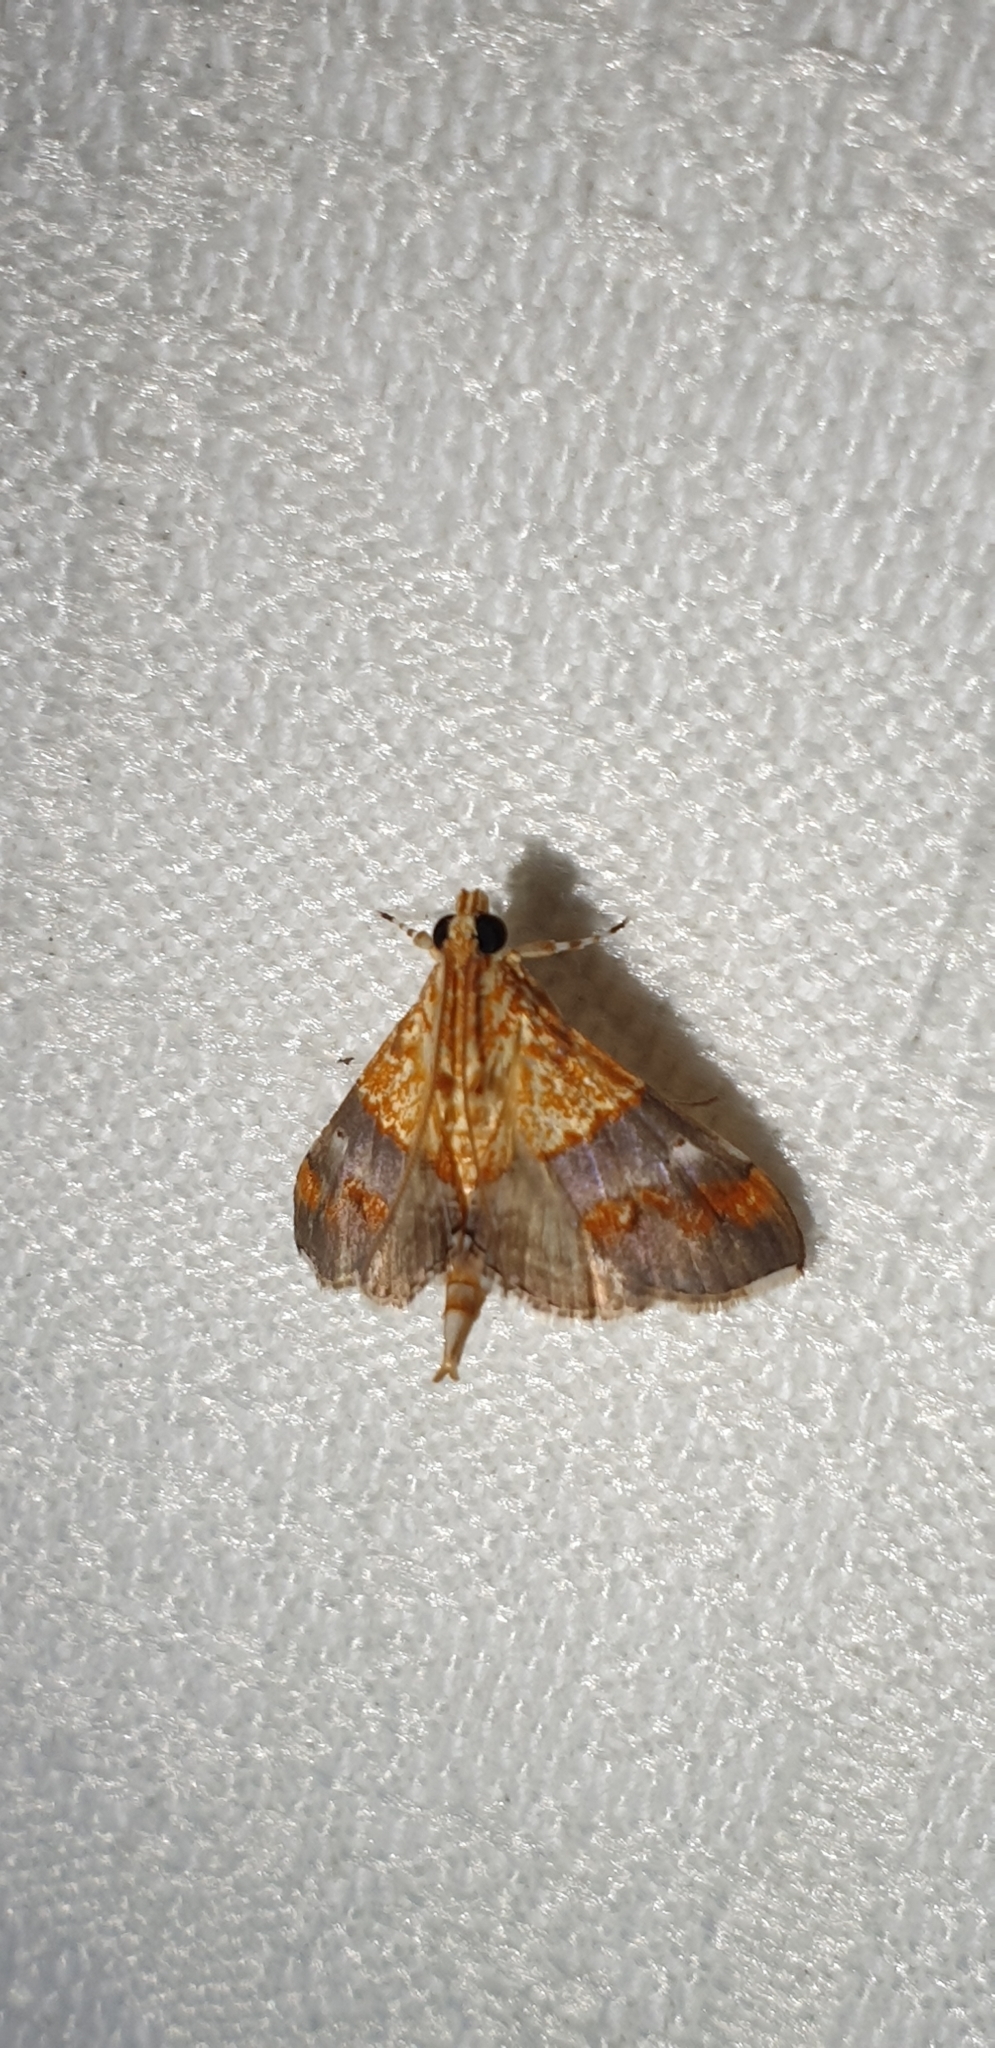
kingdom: Animalia
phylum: Arthropoda
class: Insecta
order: Lepidoptera
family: Crambidae
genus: Agrotera
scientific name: Agrotera Tetracona amathealis
